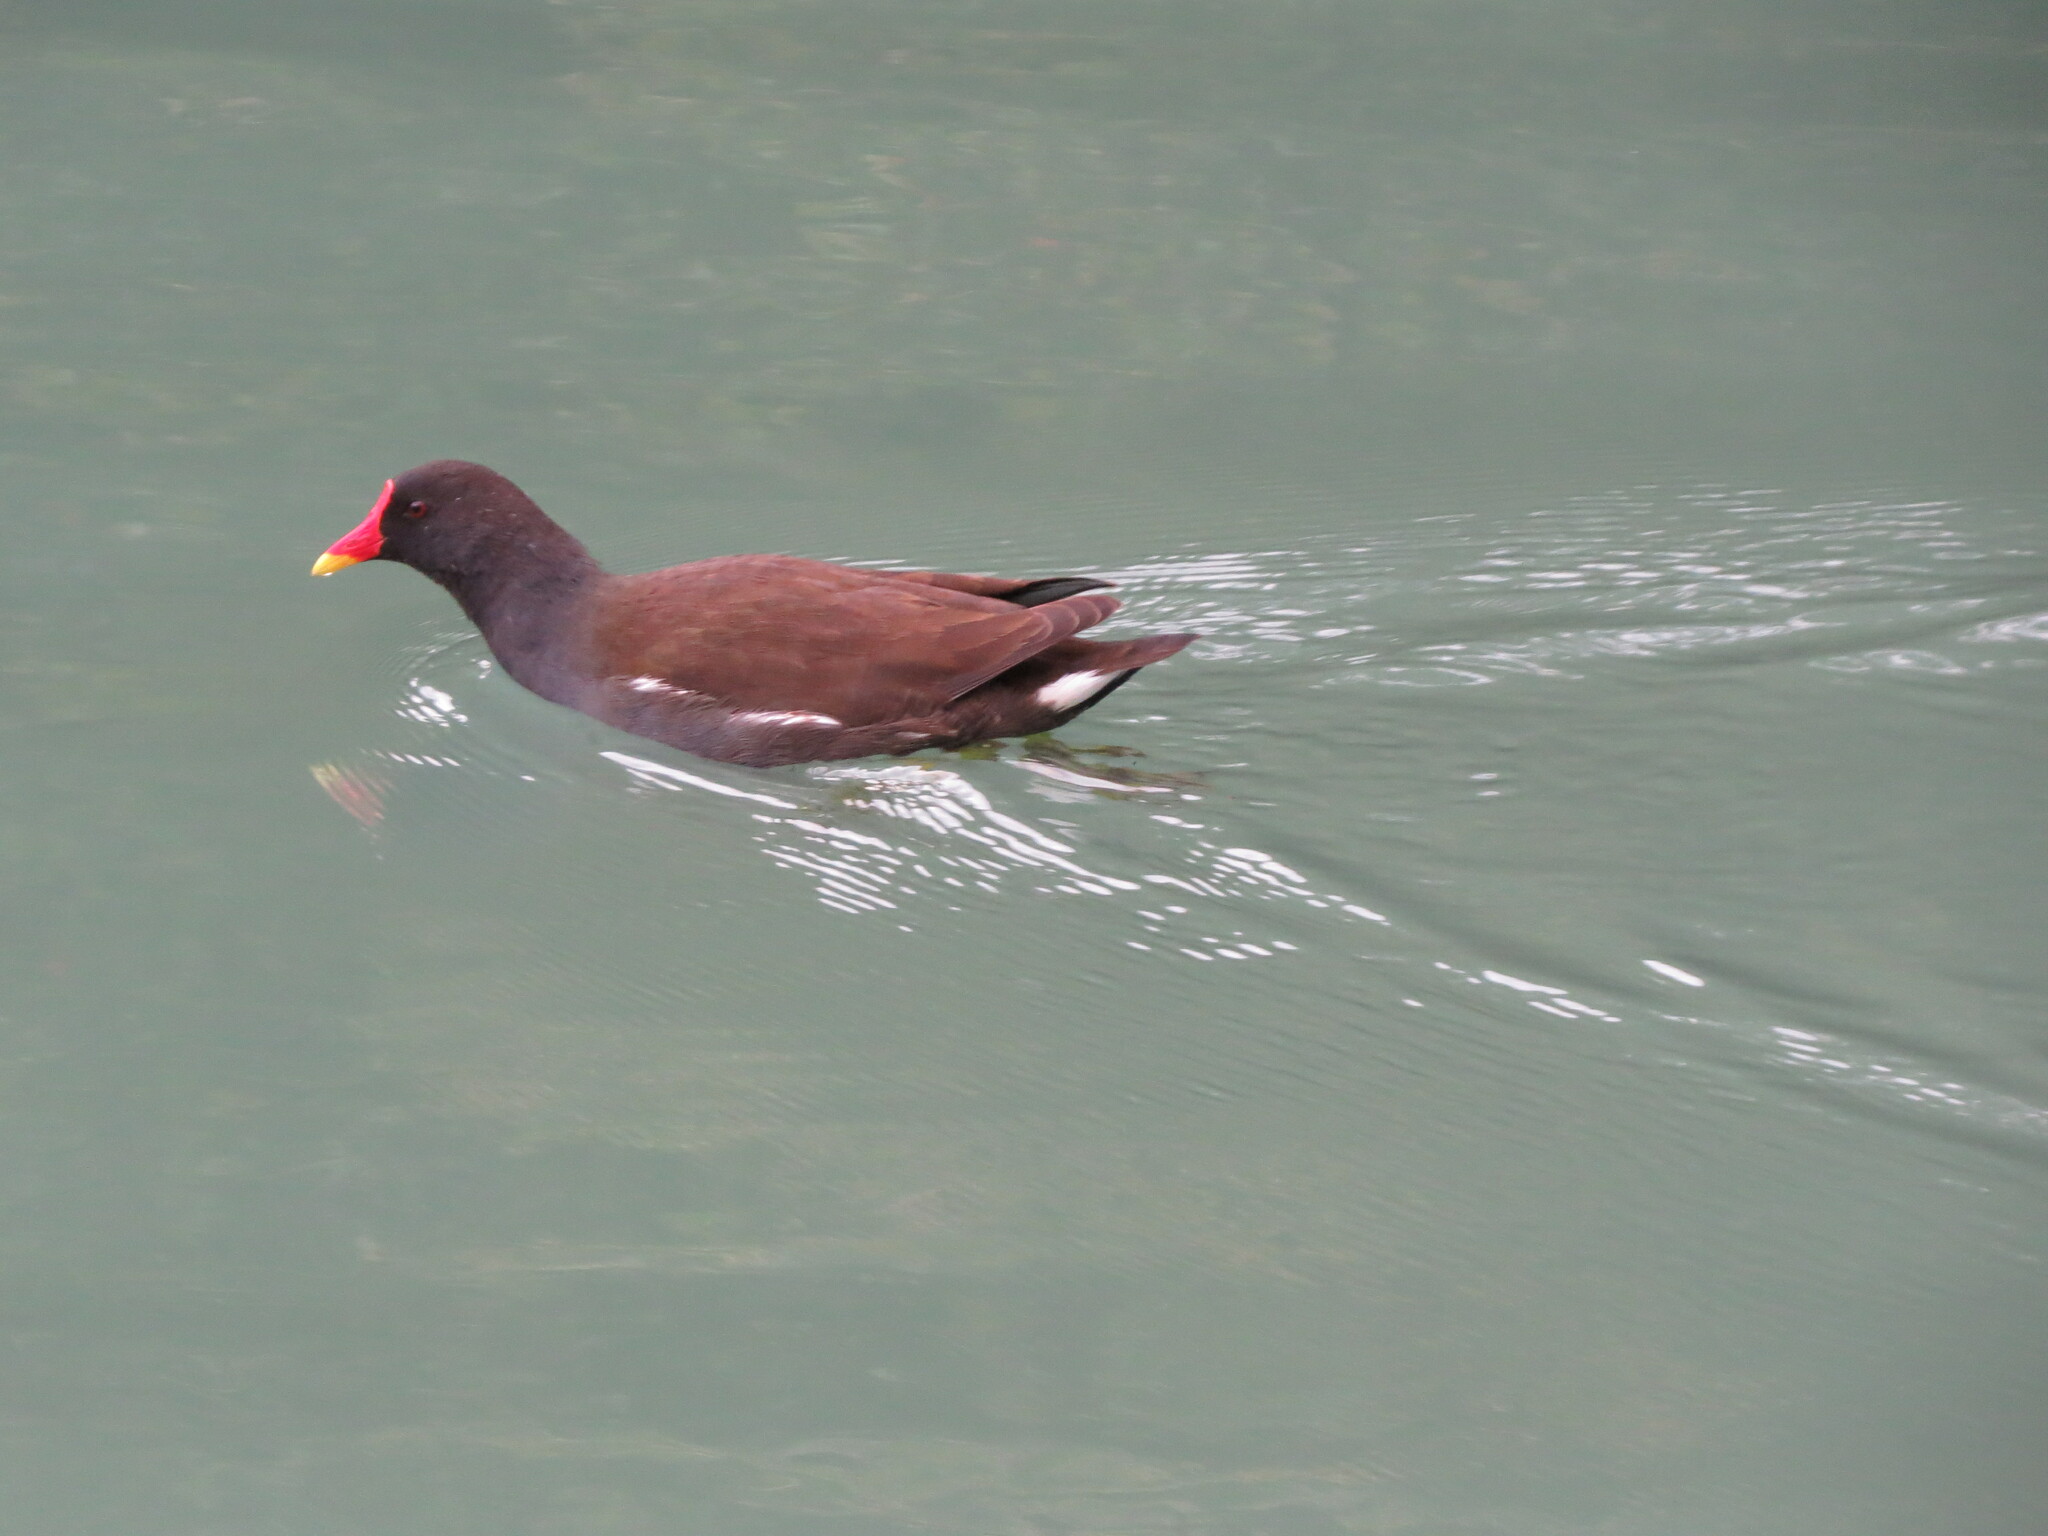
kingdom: Animalia
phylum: Chordata
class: Aves
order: Gruiformes
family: Rallidae
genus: Gallinula
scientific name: Gallinula chloropus
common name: Common moorhen
